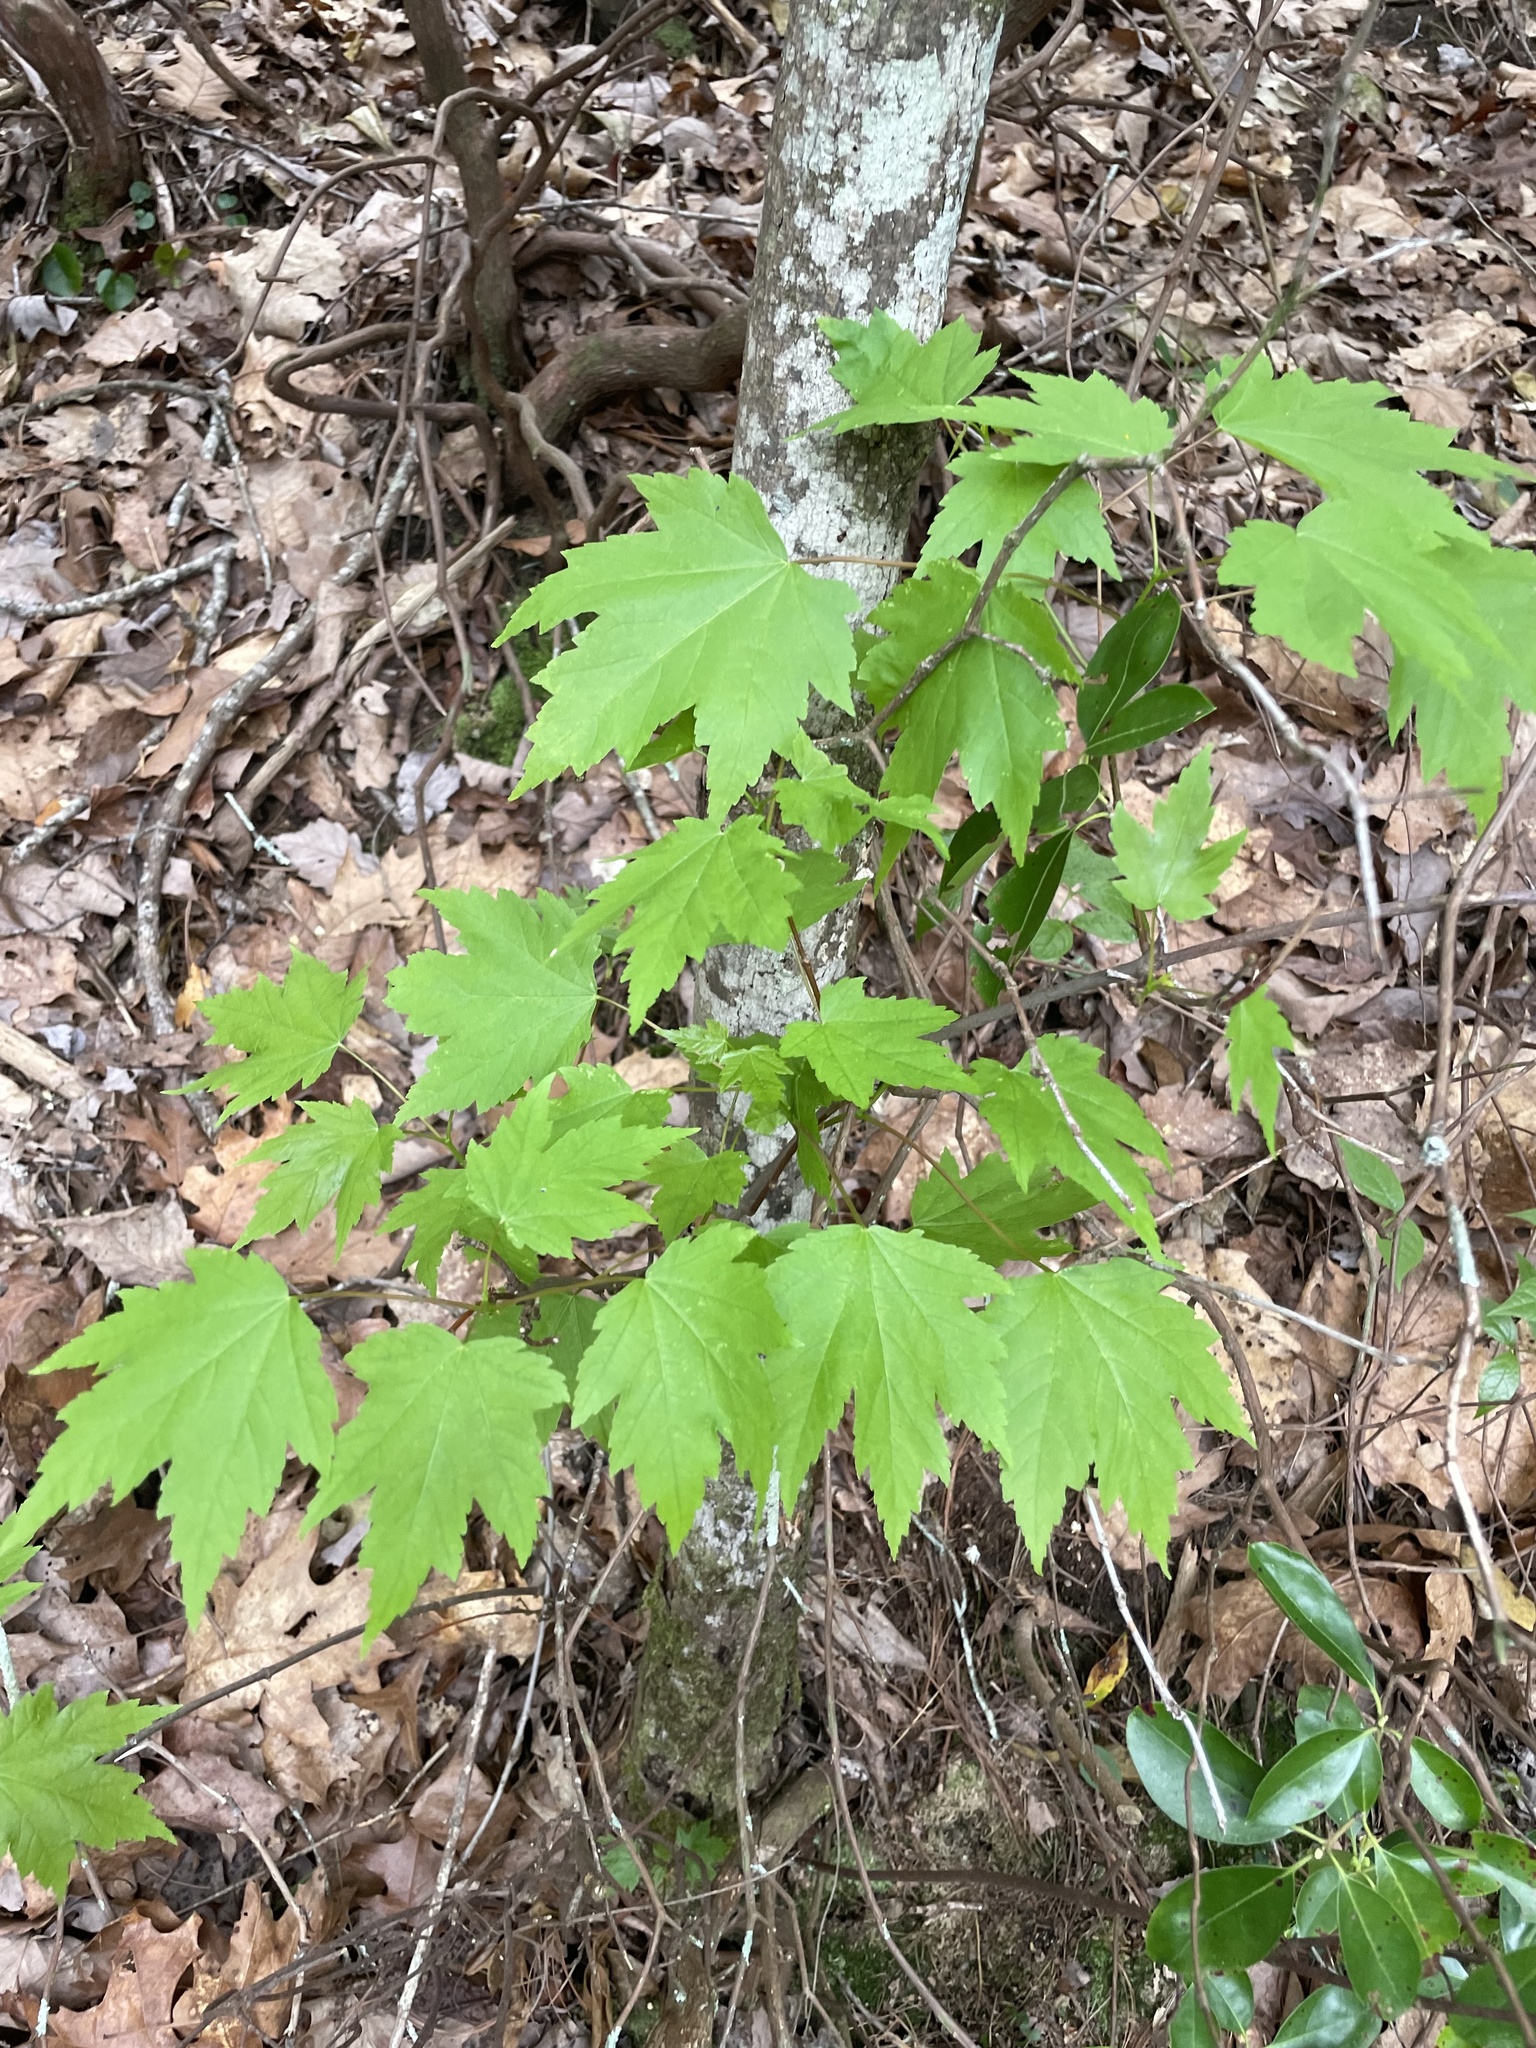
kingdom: Plantae
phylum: Tracheophyta
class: Magnoliopsida
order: Sapindales
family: Sapindaceae
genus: Acer
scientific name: Acer rubrum
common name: Red maple
